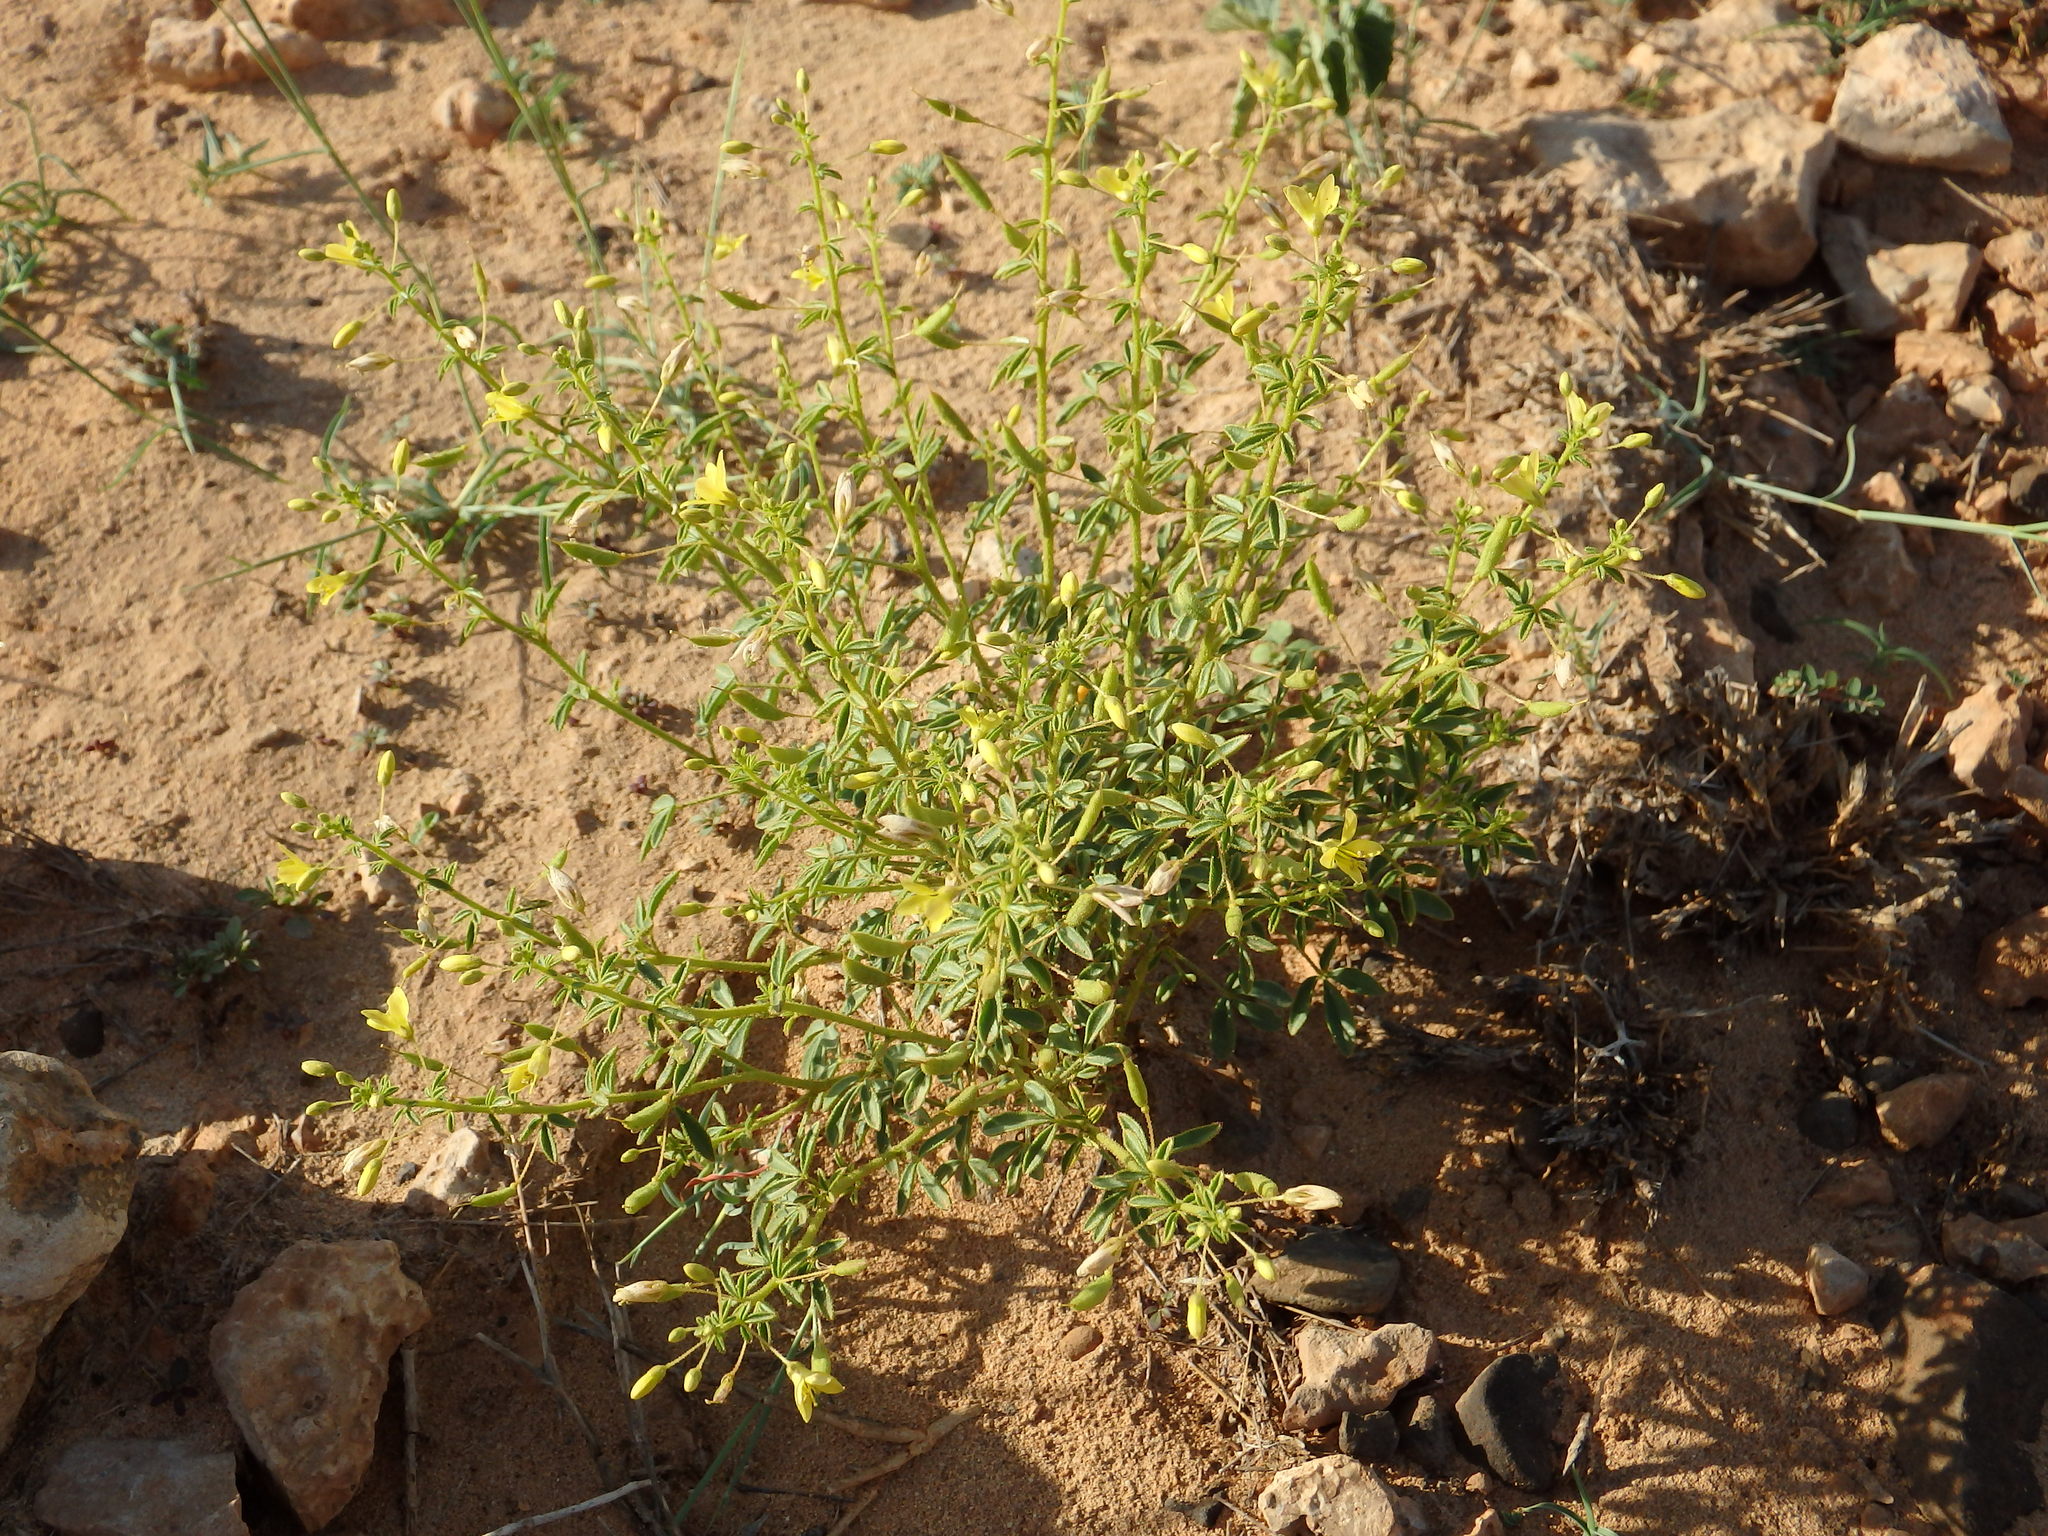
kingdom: Plantae
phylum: Tracheophyta
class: Magnoliopsida
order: Brassicales
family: Cleomaceae
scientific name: Cleomaceae
